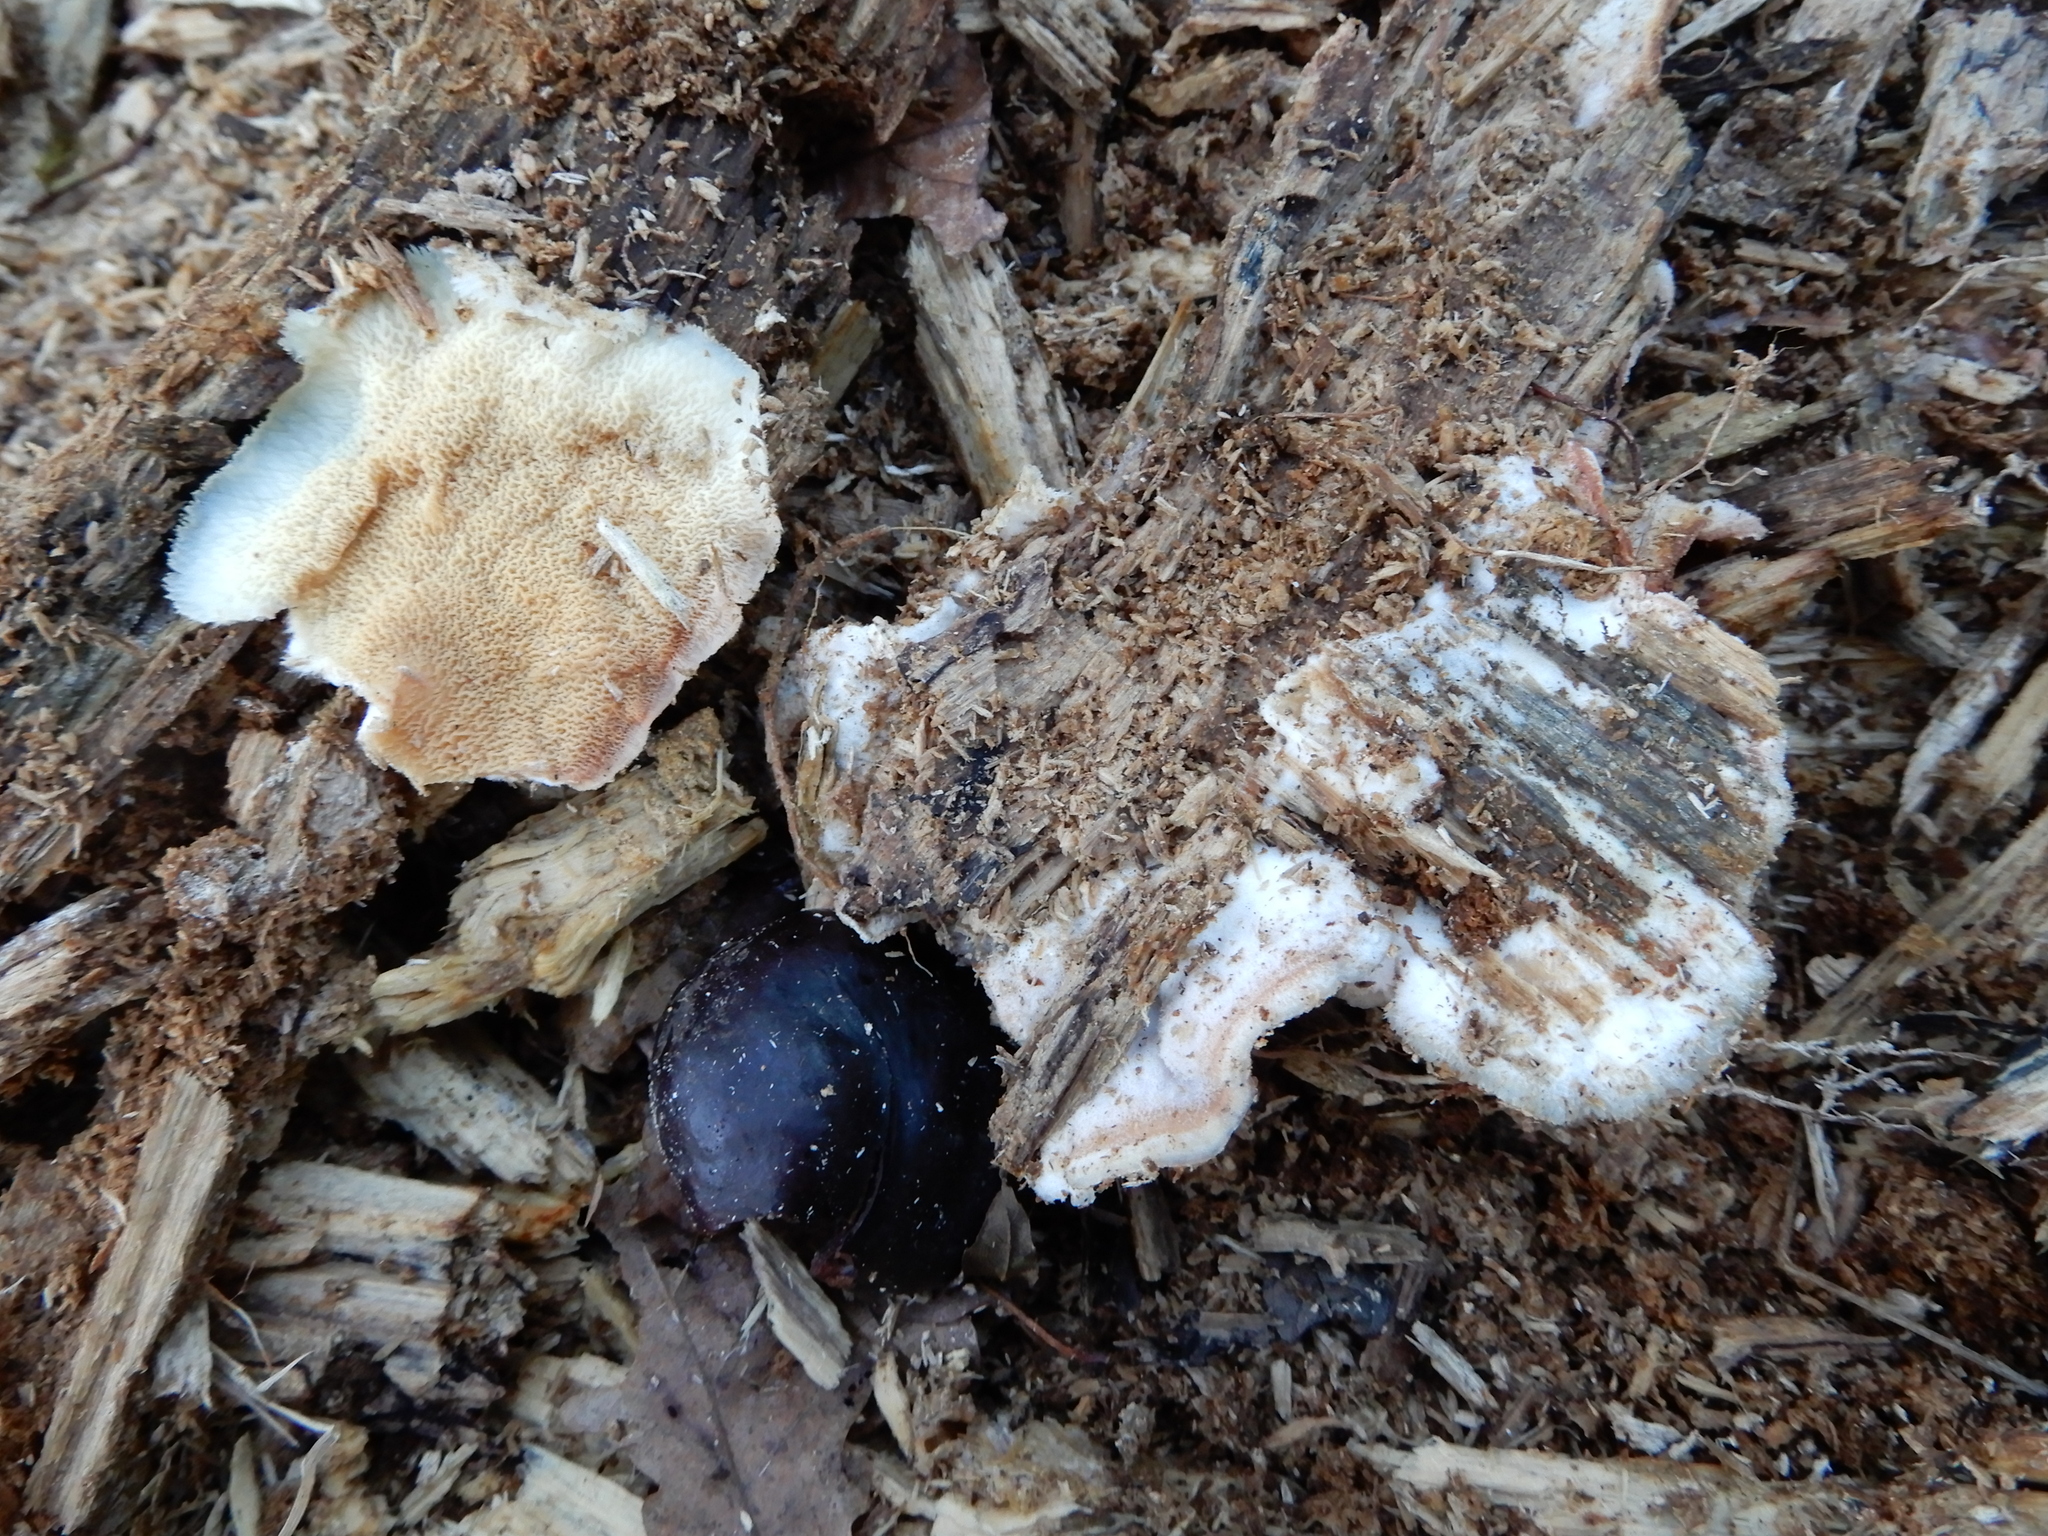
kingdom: Fungi
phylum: Basidiomycota
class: Agaricomycetes
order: Polyporales
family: Meruliaceae
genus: Phlebia
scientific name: Phlebia tremellosa
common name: Jelly rot
